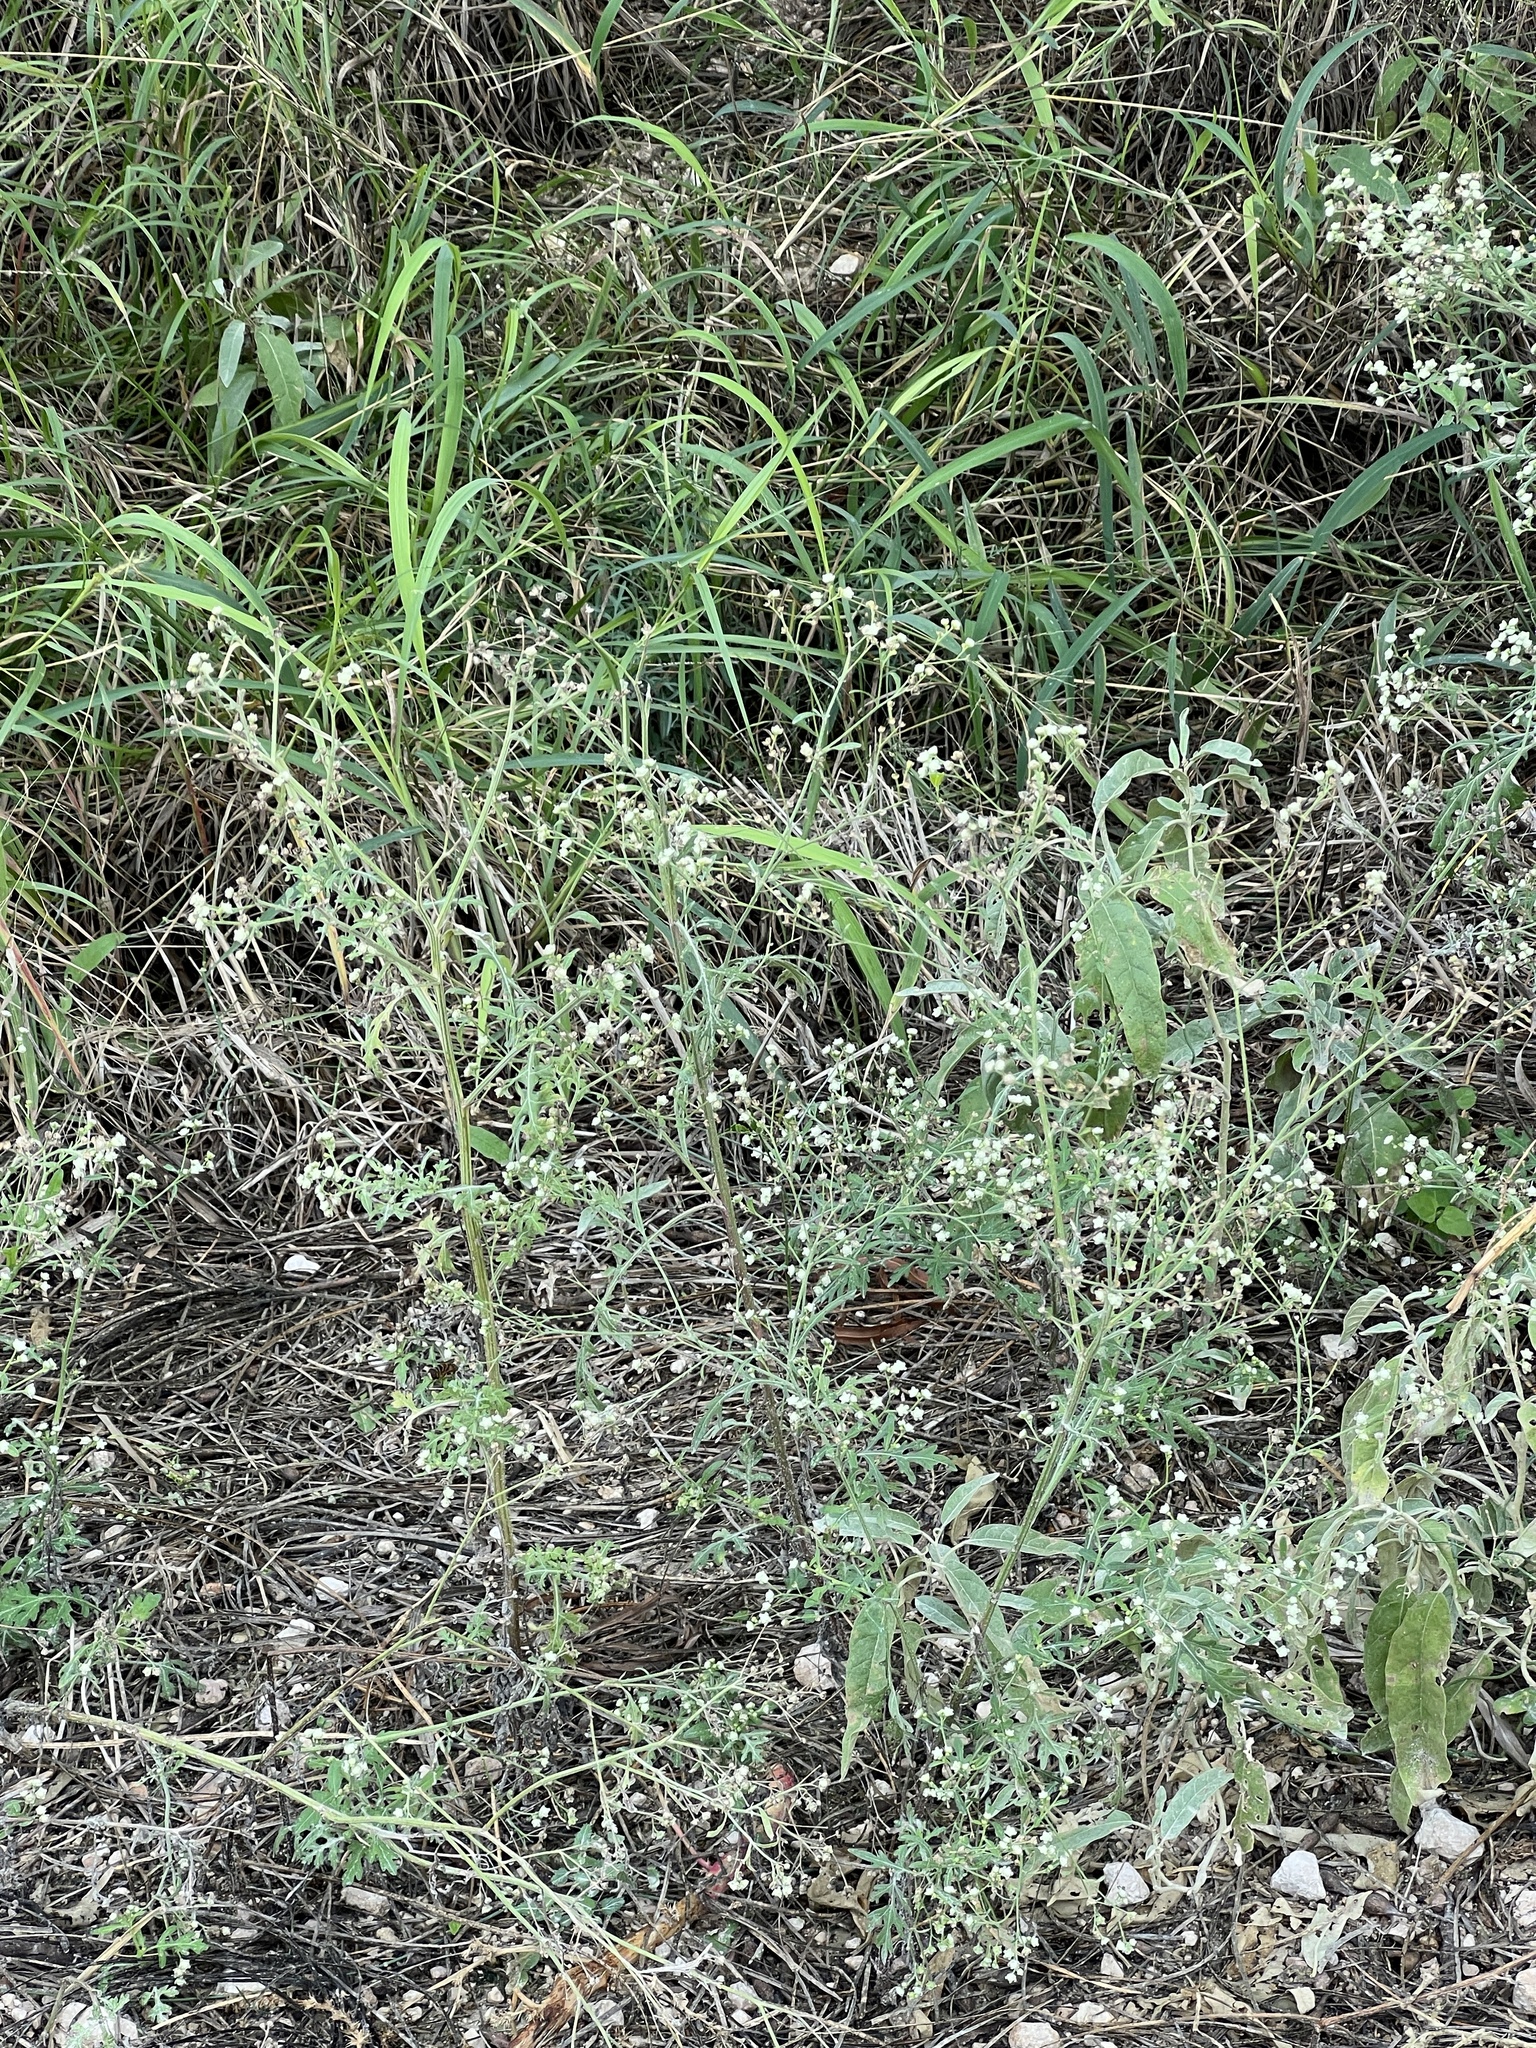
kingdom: Plantae
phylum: Tracheophyta
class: Magnoliopsida
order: Asterales
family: Asteraceae
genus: Parthenium
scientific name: Parthenium hysterophorus
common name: Santa maria feverfew
